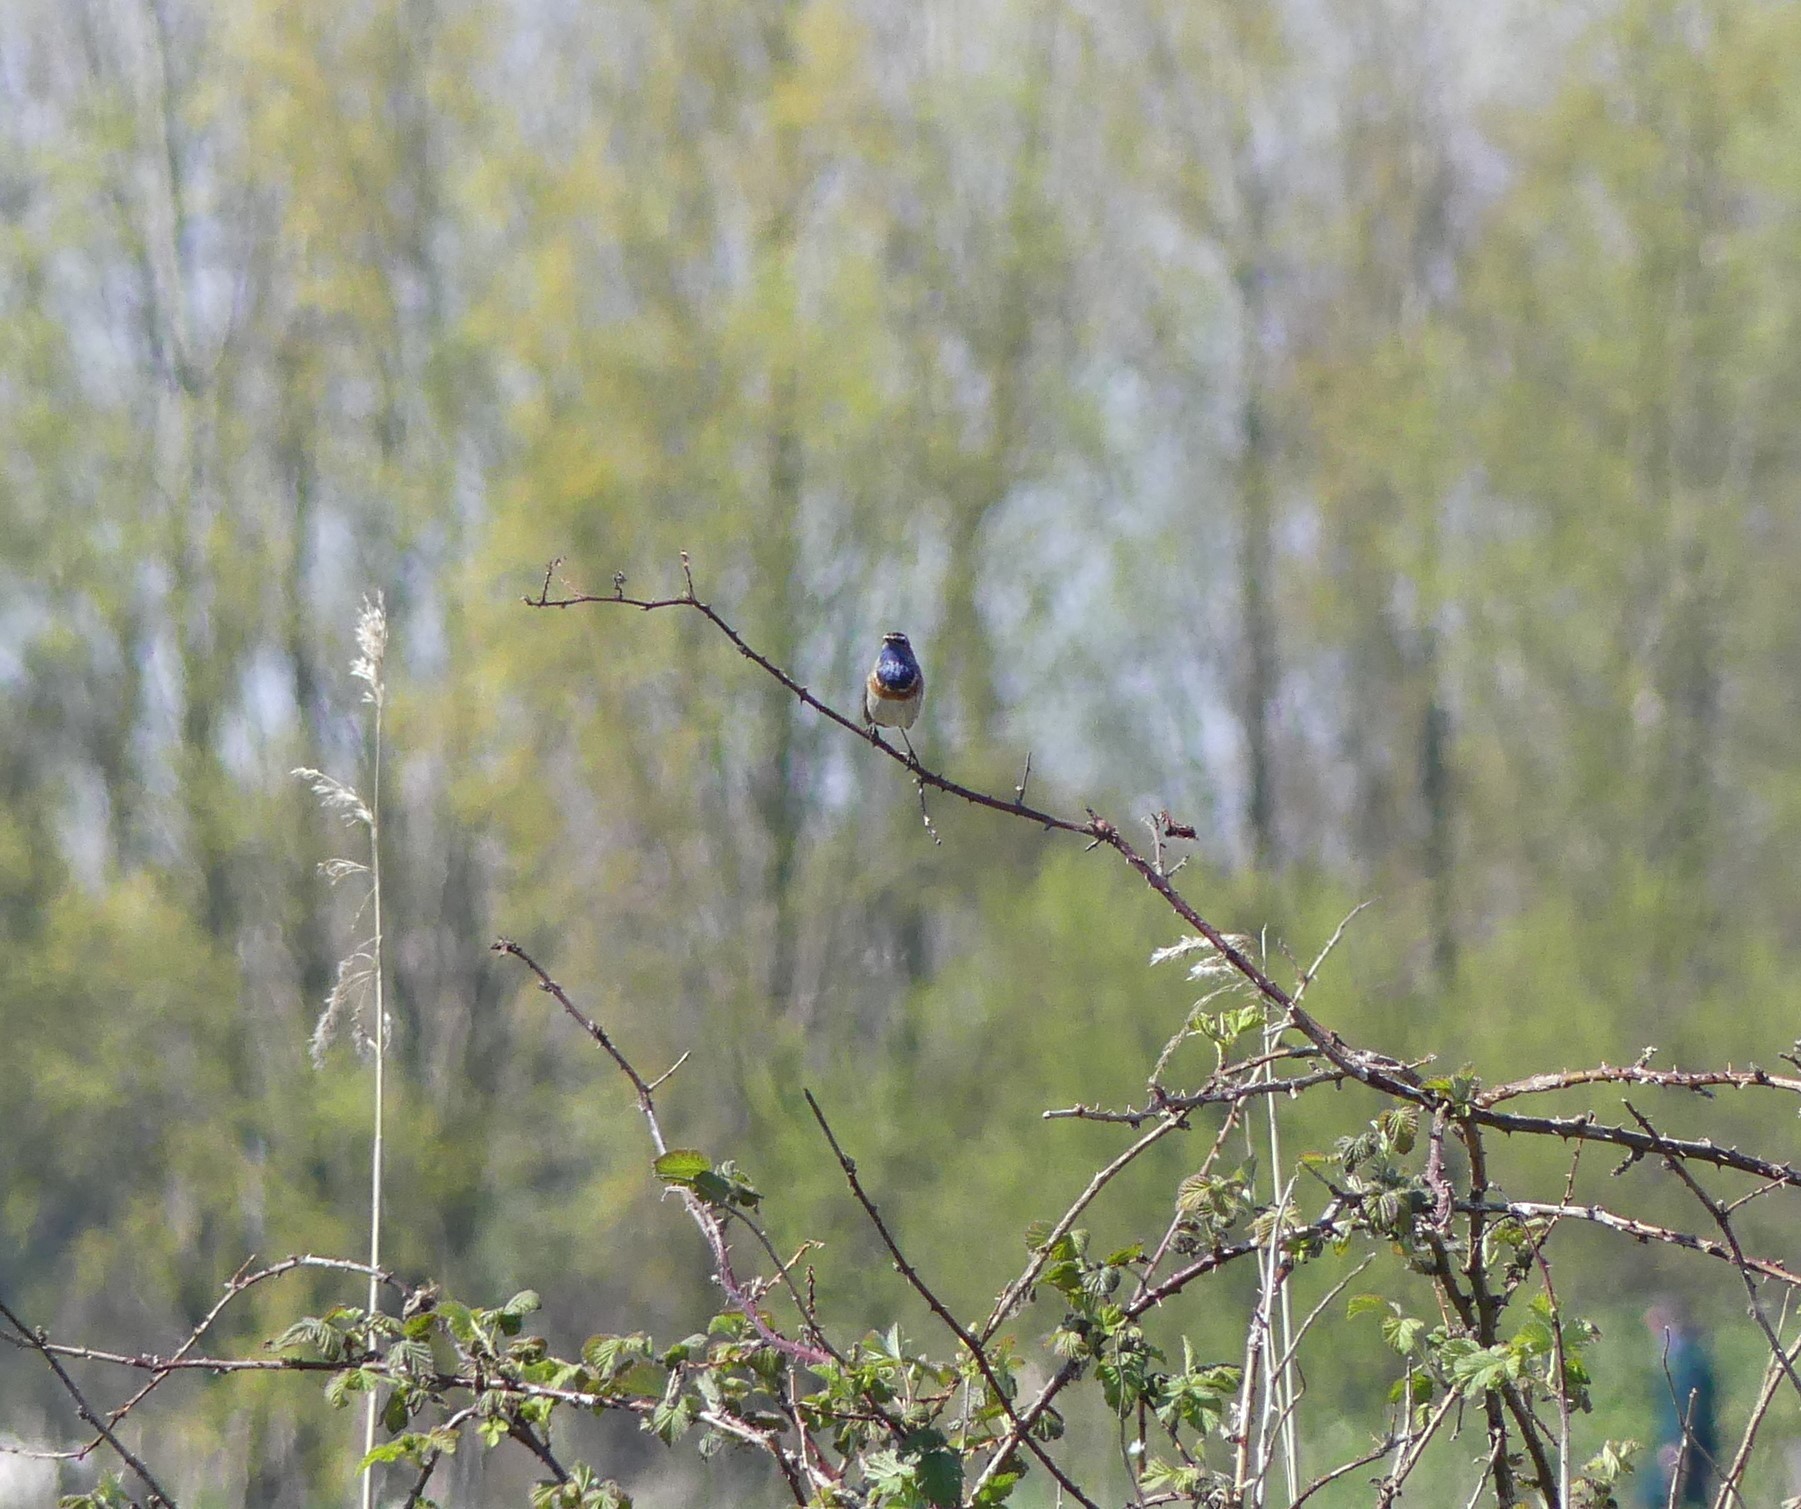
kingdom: Animalia
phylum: Chordata
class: Aves
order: Passeriformes
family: Muscicapidae
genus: Luscinia
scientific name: Luscinia svecica
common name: Bluethroat
